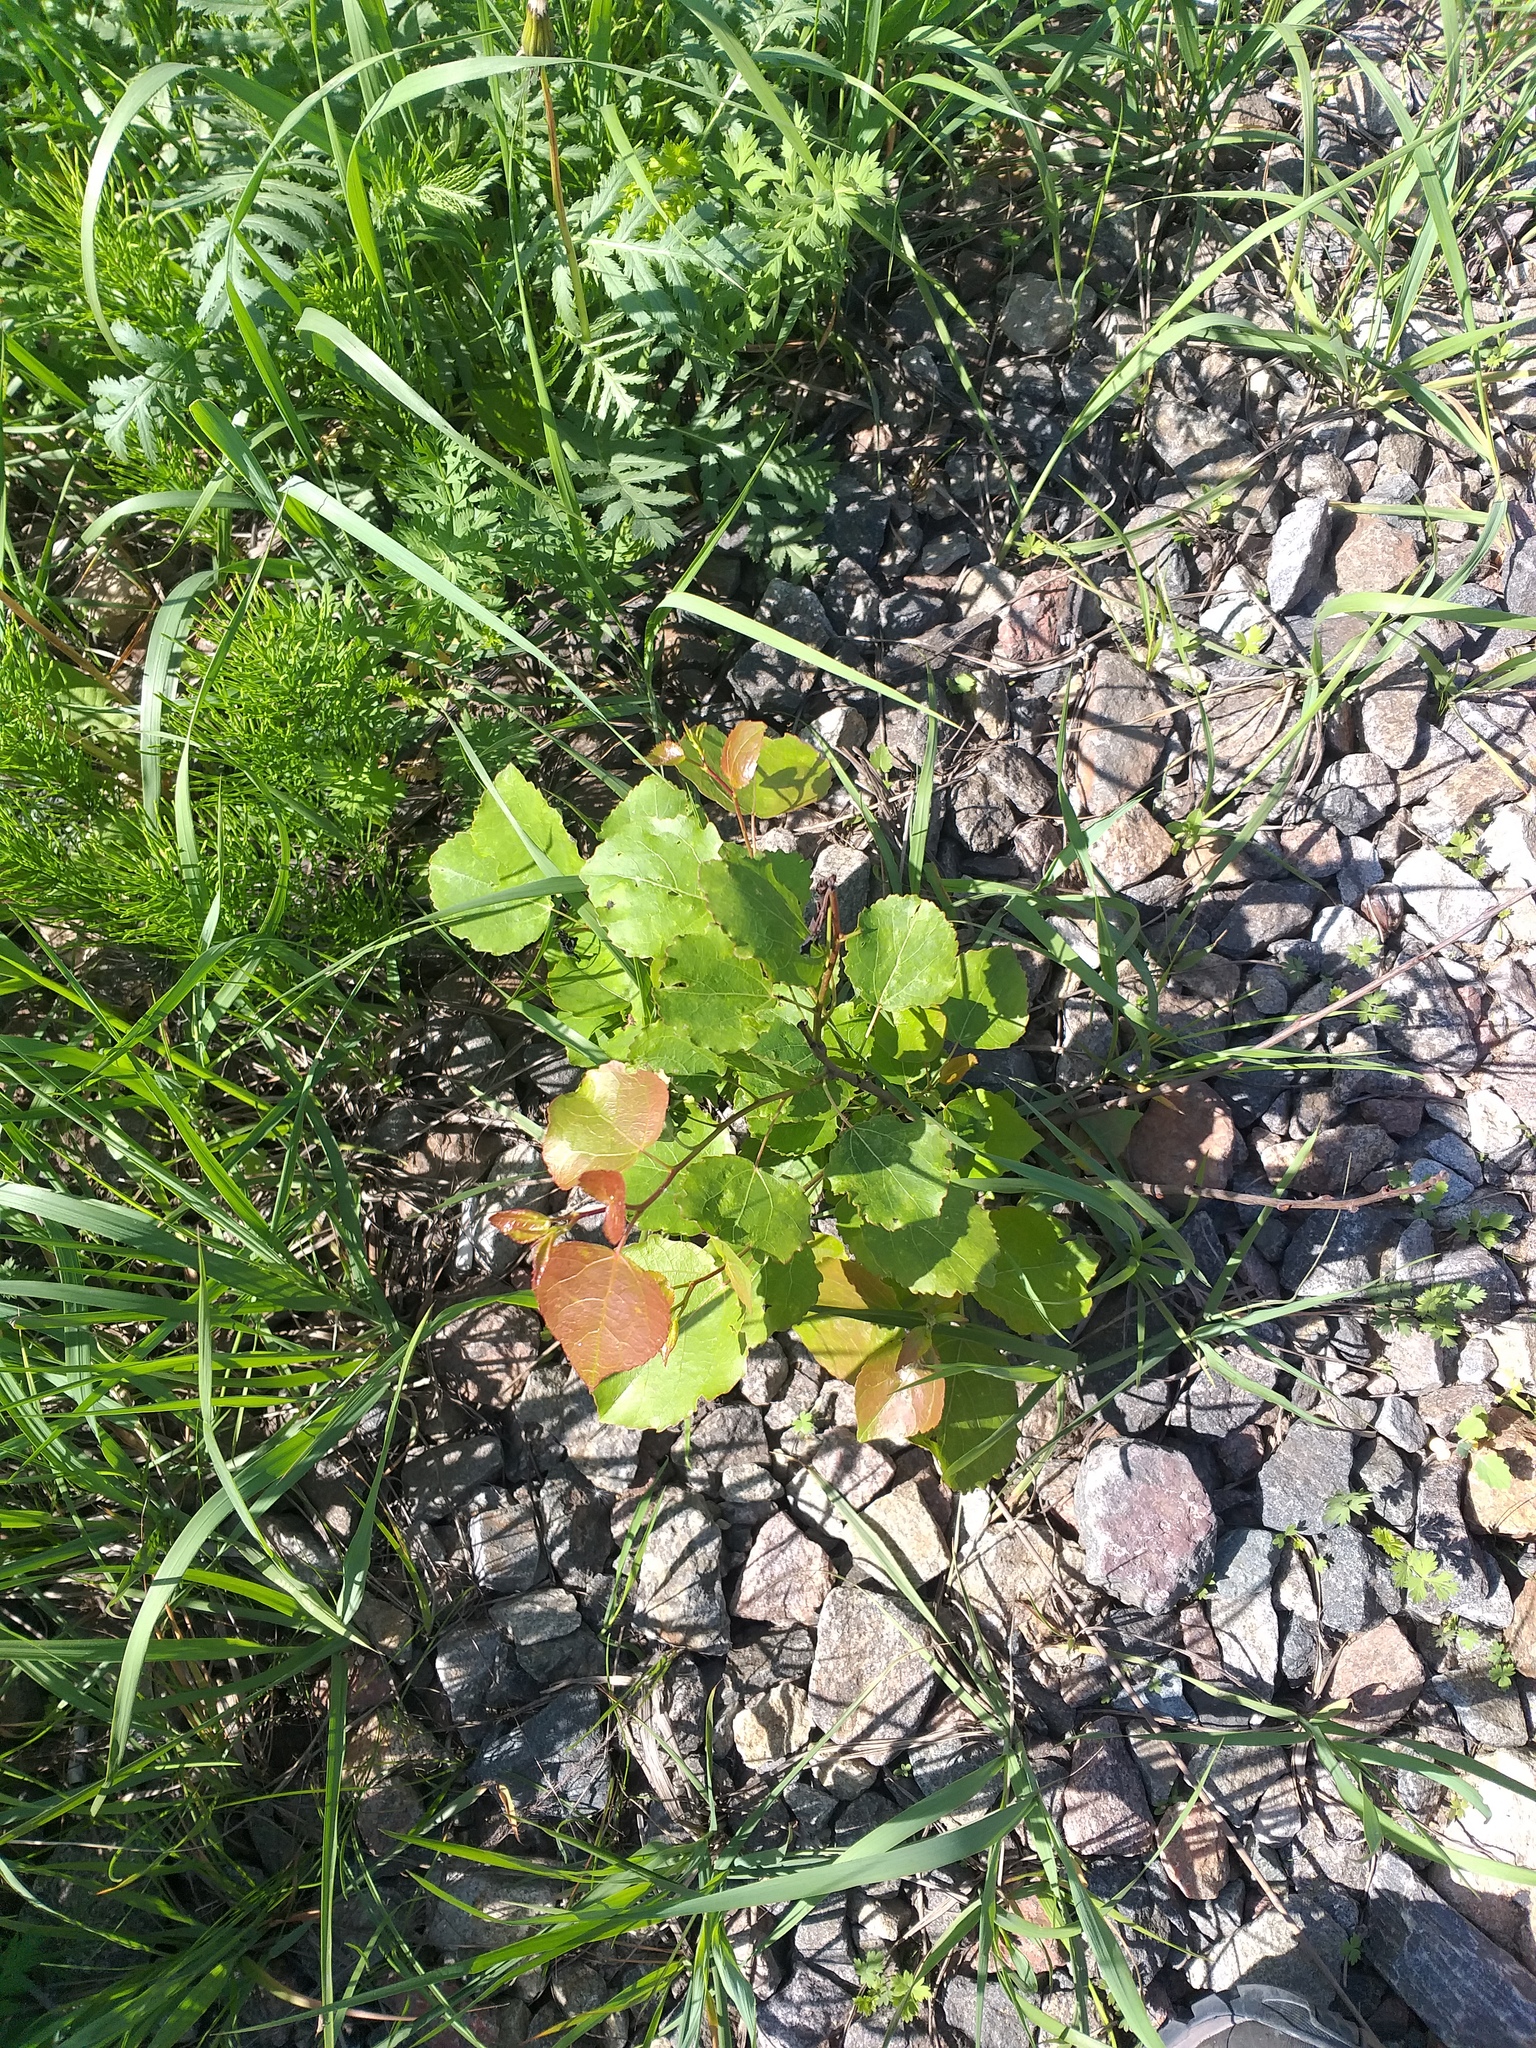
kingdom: Plantae
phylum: Tracheophyta
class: Magnoliopsida
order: Malpighiales
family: Salicaceae
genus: Populus
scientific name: Populus tremula
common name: European aspen
